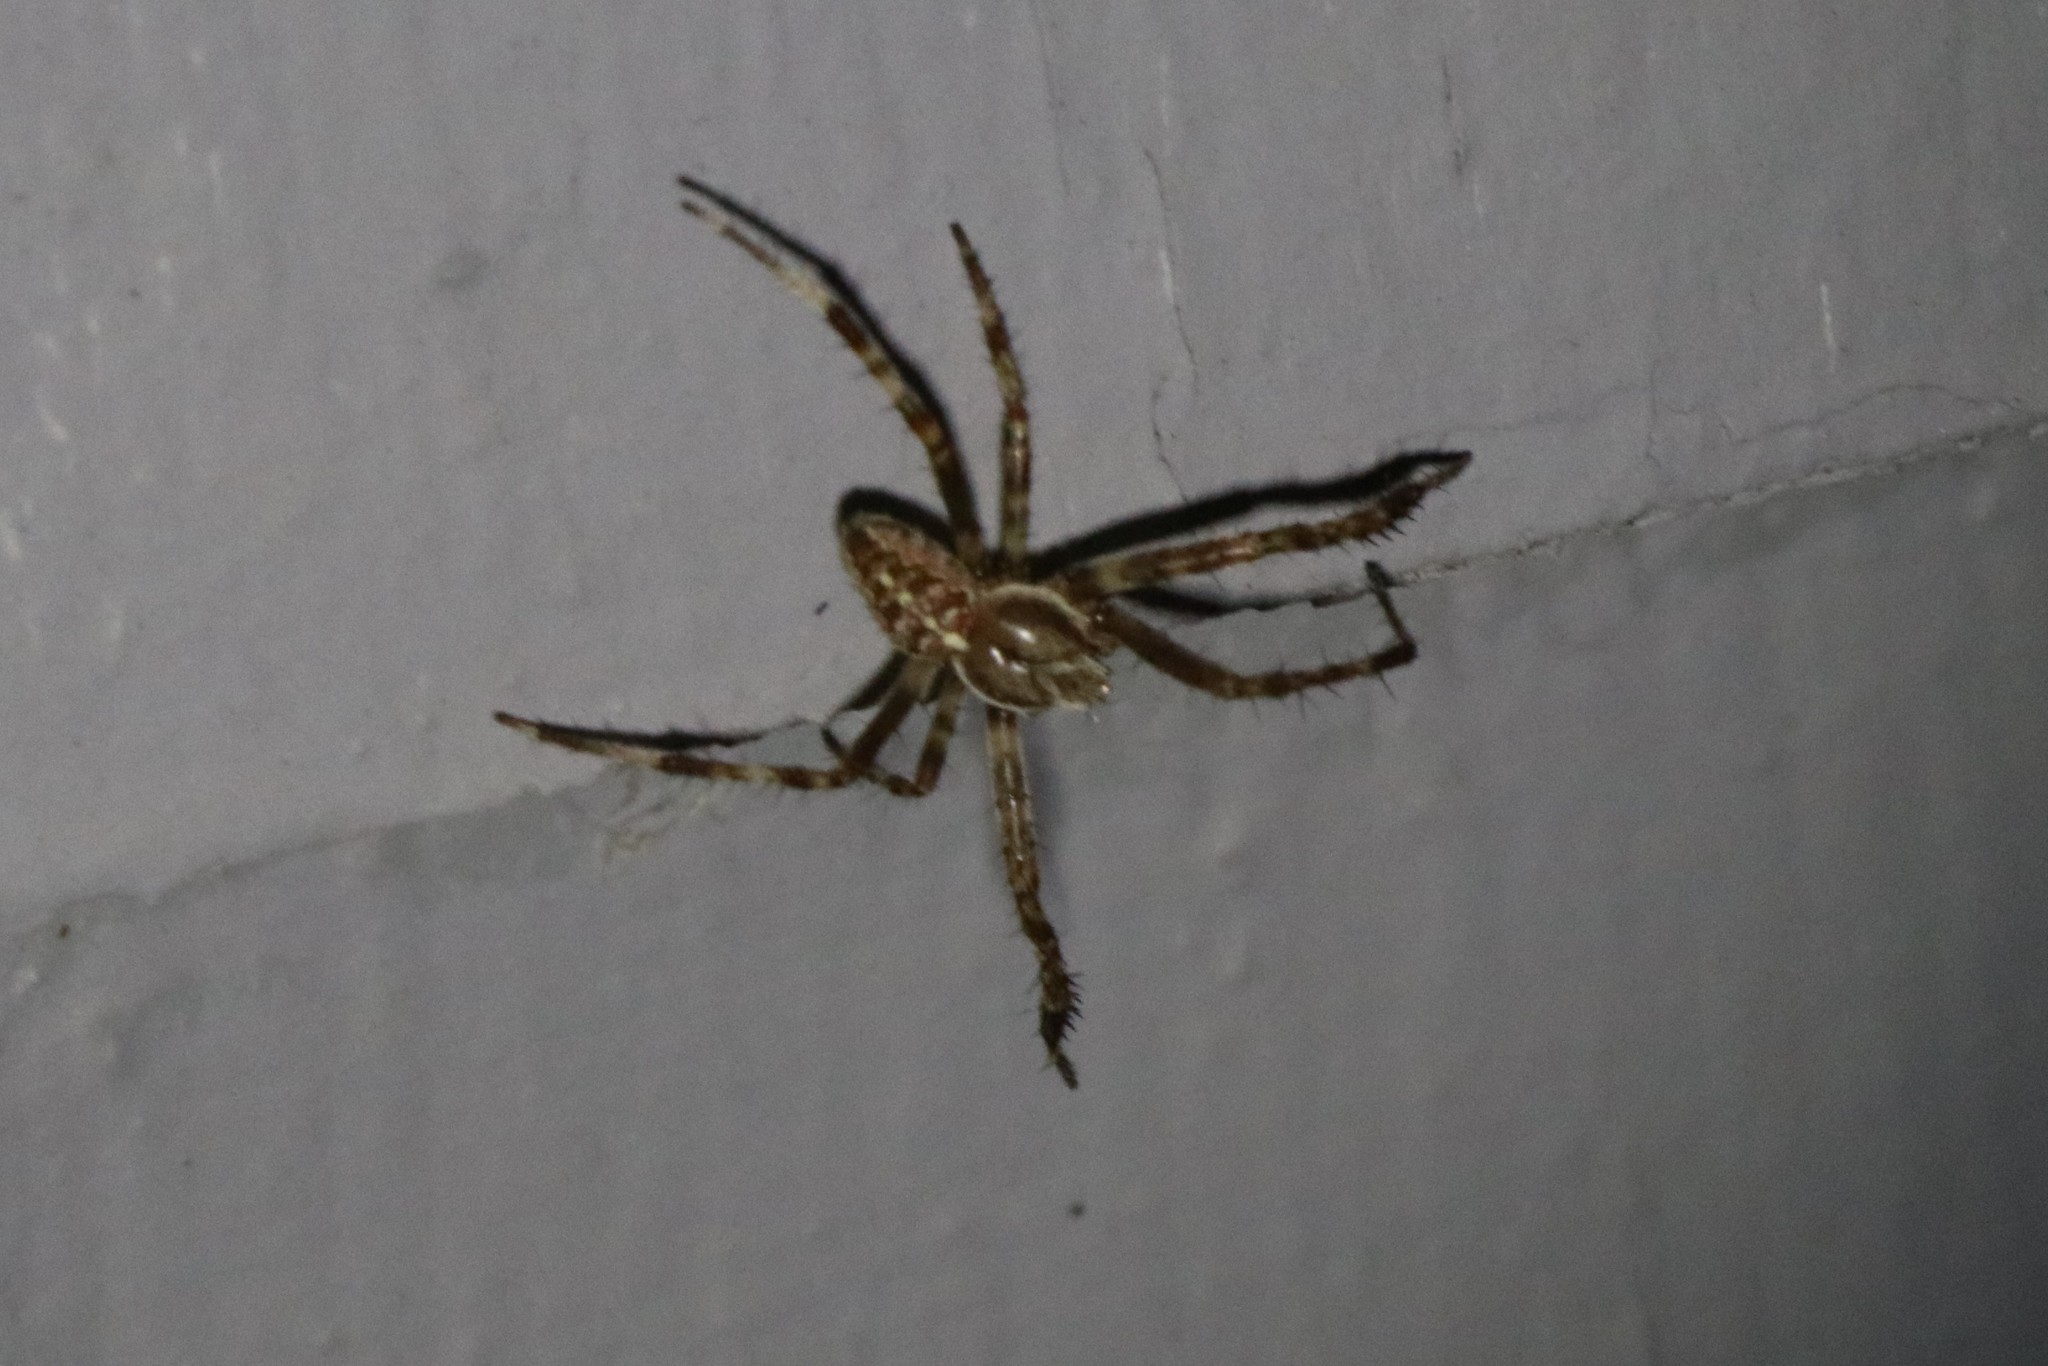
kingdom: Animalia
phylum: Arthropoda
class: Arachnida
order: Araneae
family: Araneidae
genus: Araneus
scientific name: Araneus diadematus
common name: Cross orbweaver
